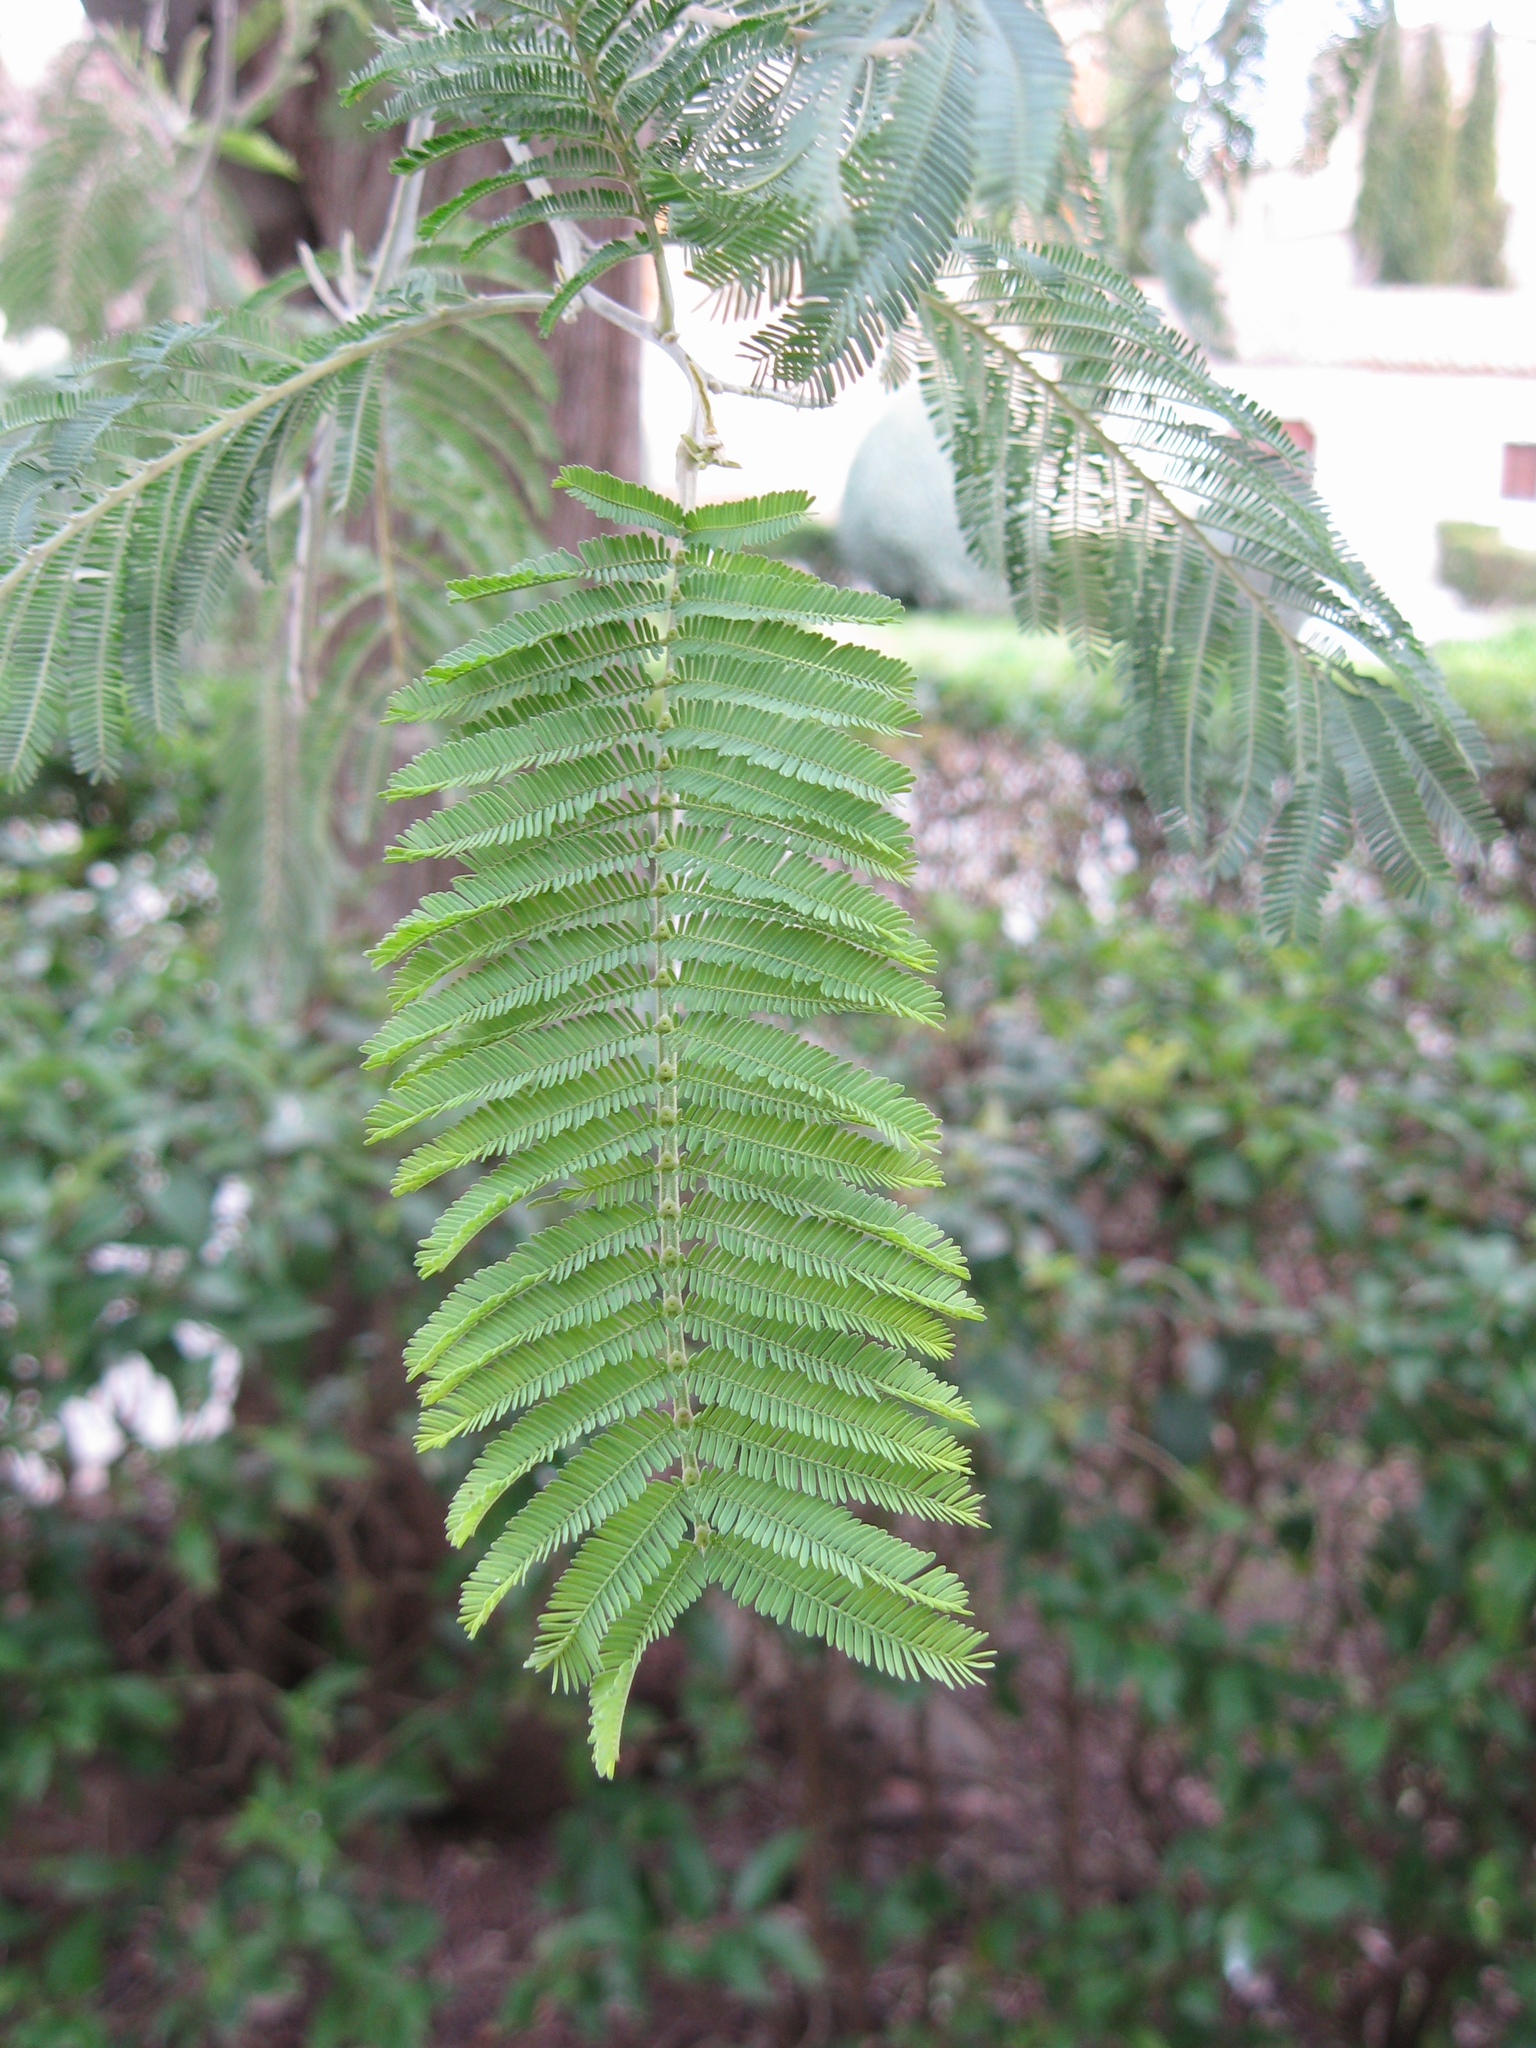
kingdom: Plantae
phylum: Tracheophyta
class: Magnoliopsida
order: Fabales
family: Fabaceae
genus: Acacia
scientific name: Acacia dealbata
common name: Silver wattle
